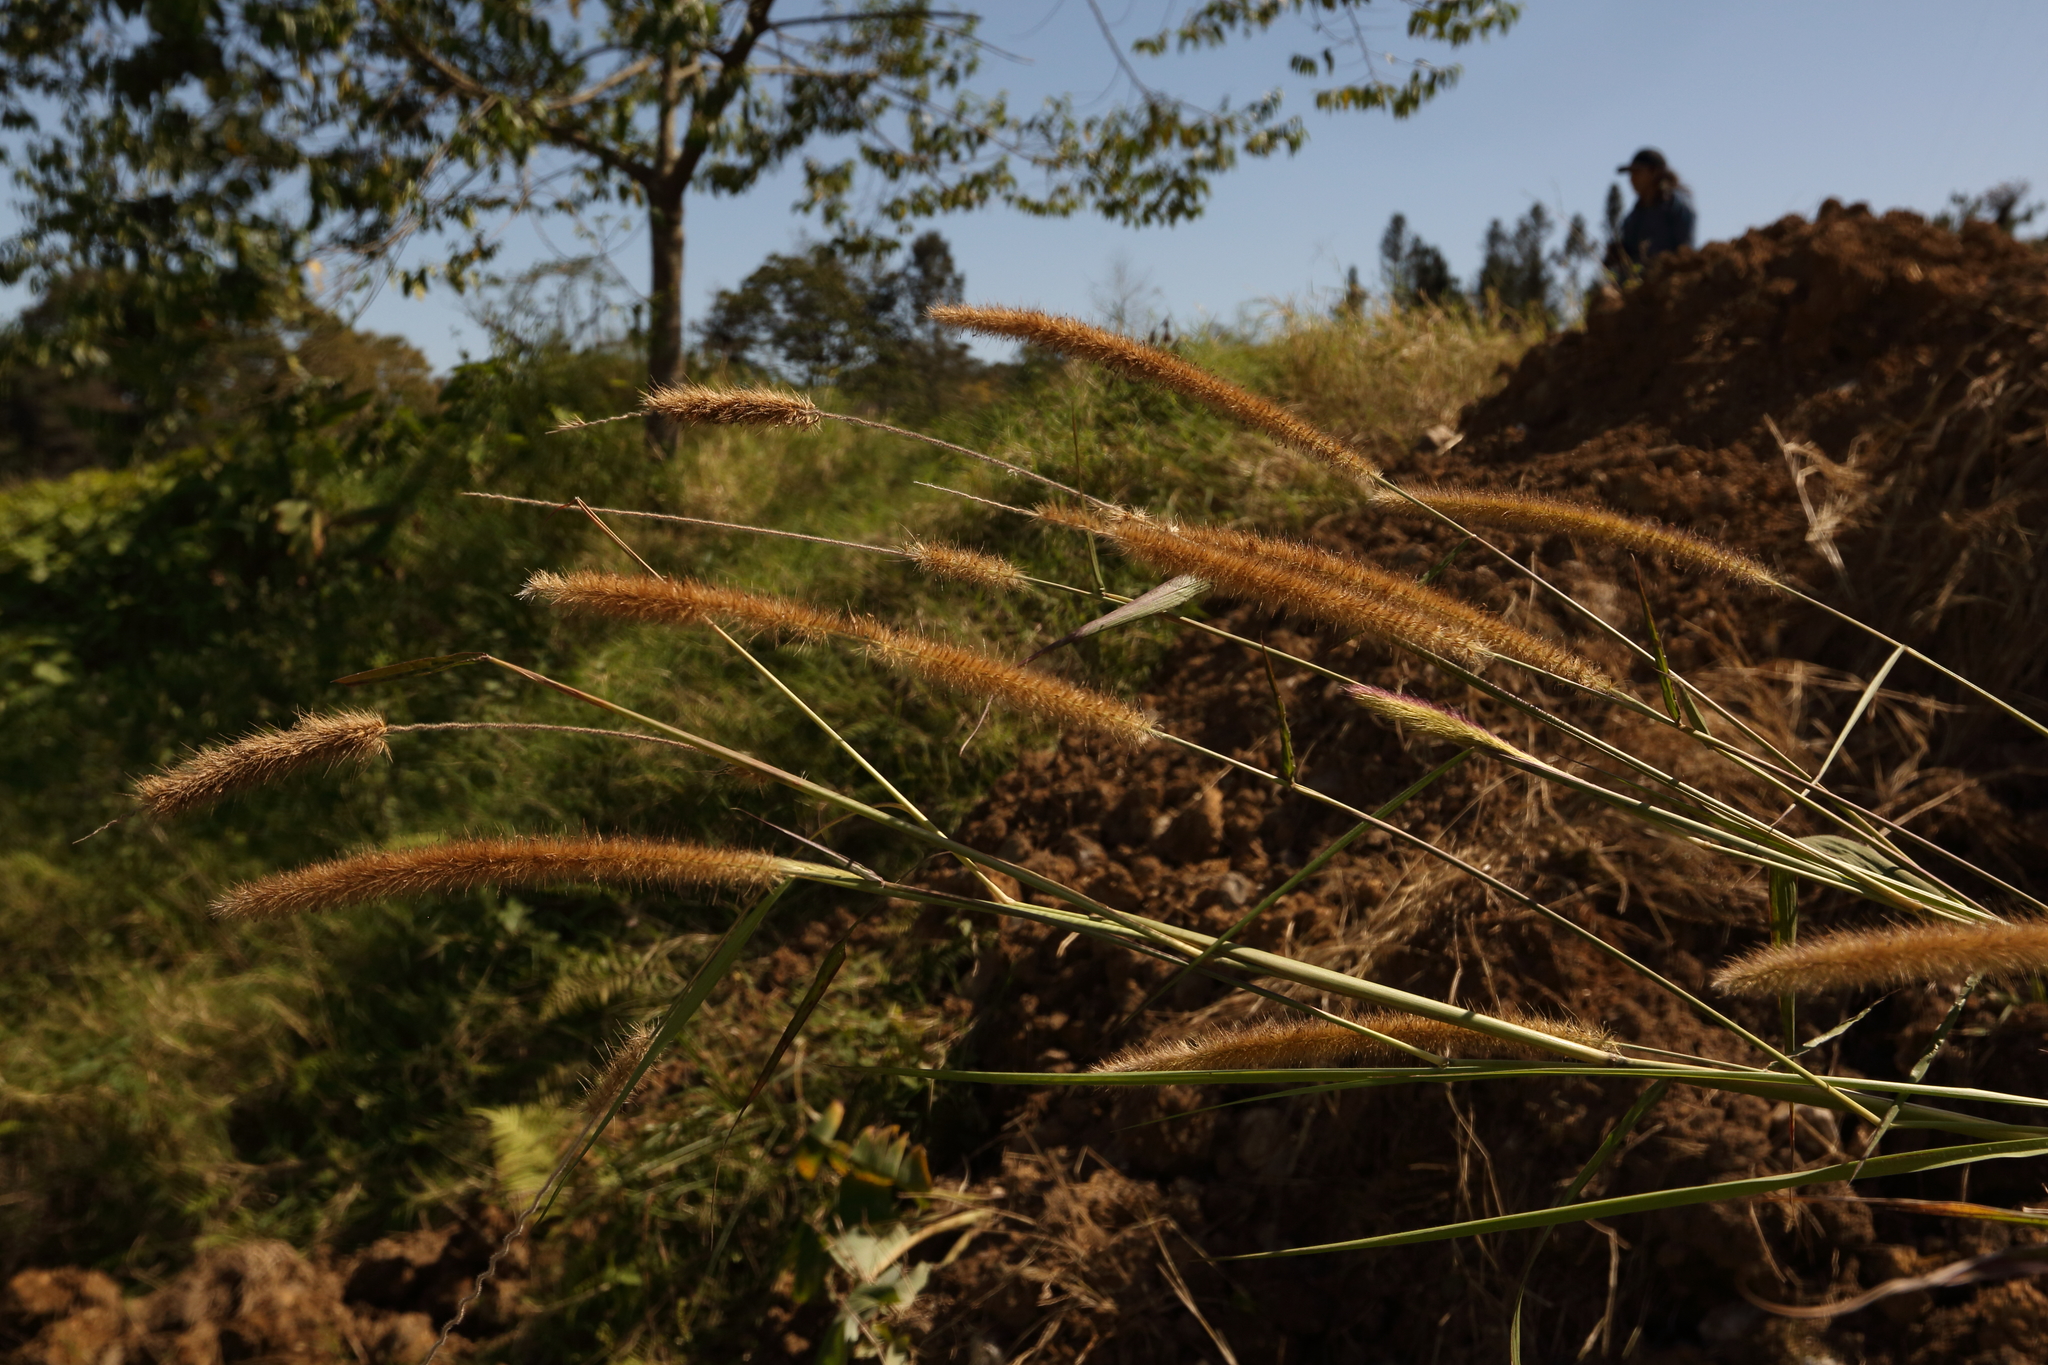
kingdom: Plantae
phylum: Tracheophyta
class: Liliopsida
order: Poales
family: Poaceae
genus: Cenchrus
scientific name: Cenchrus purpureus
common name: Elephant grass
